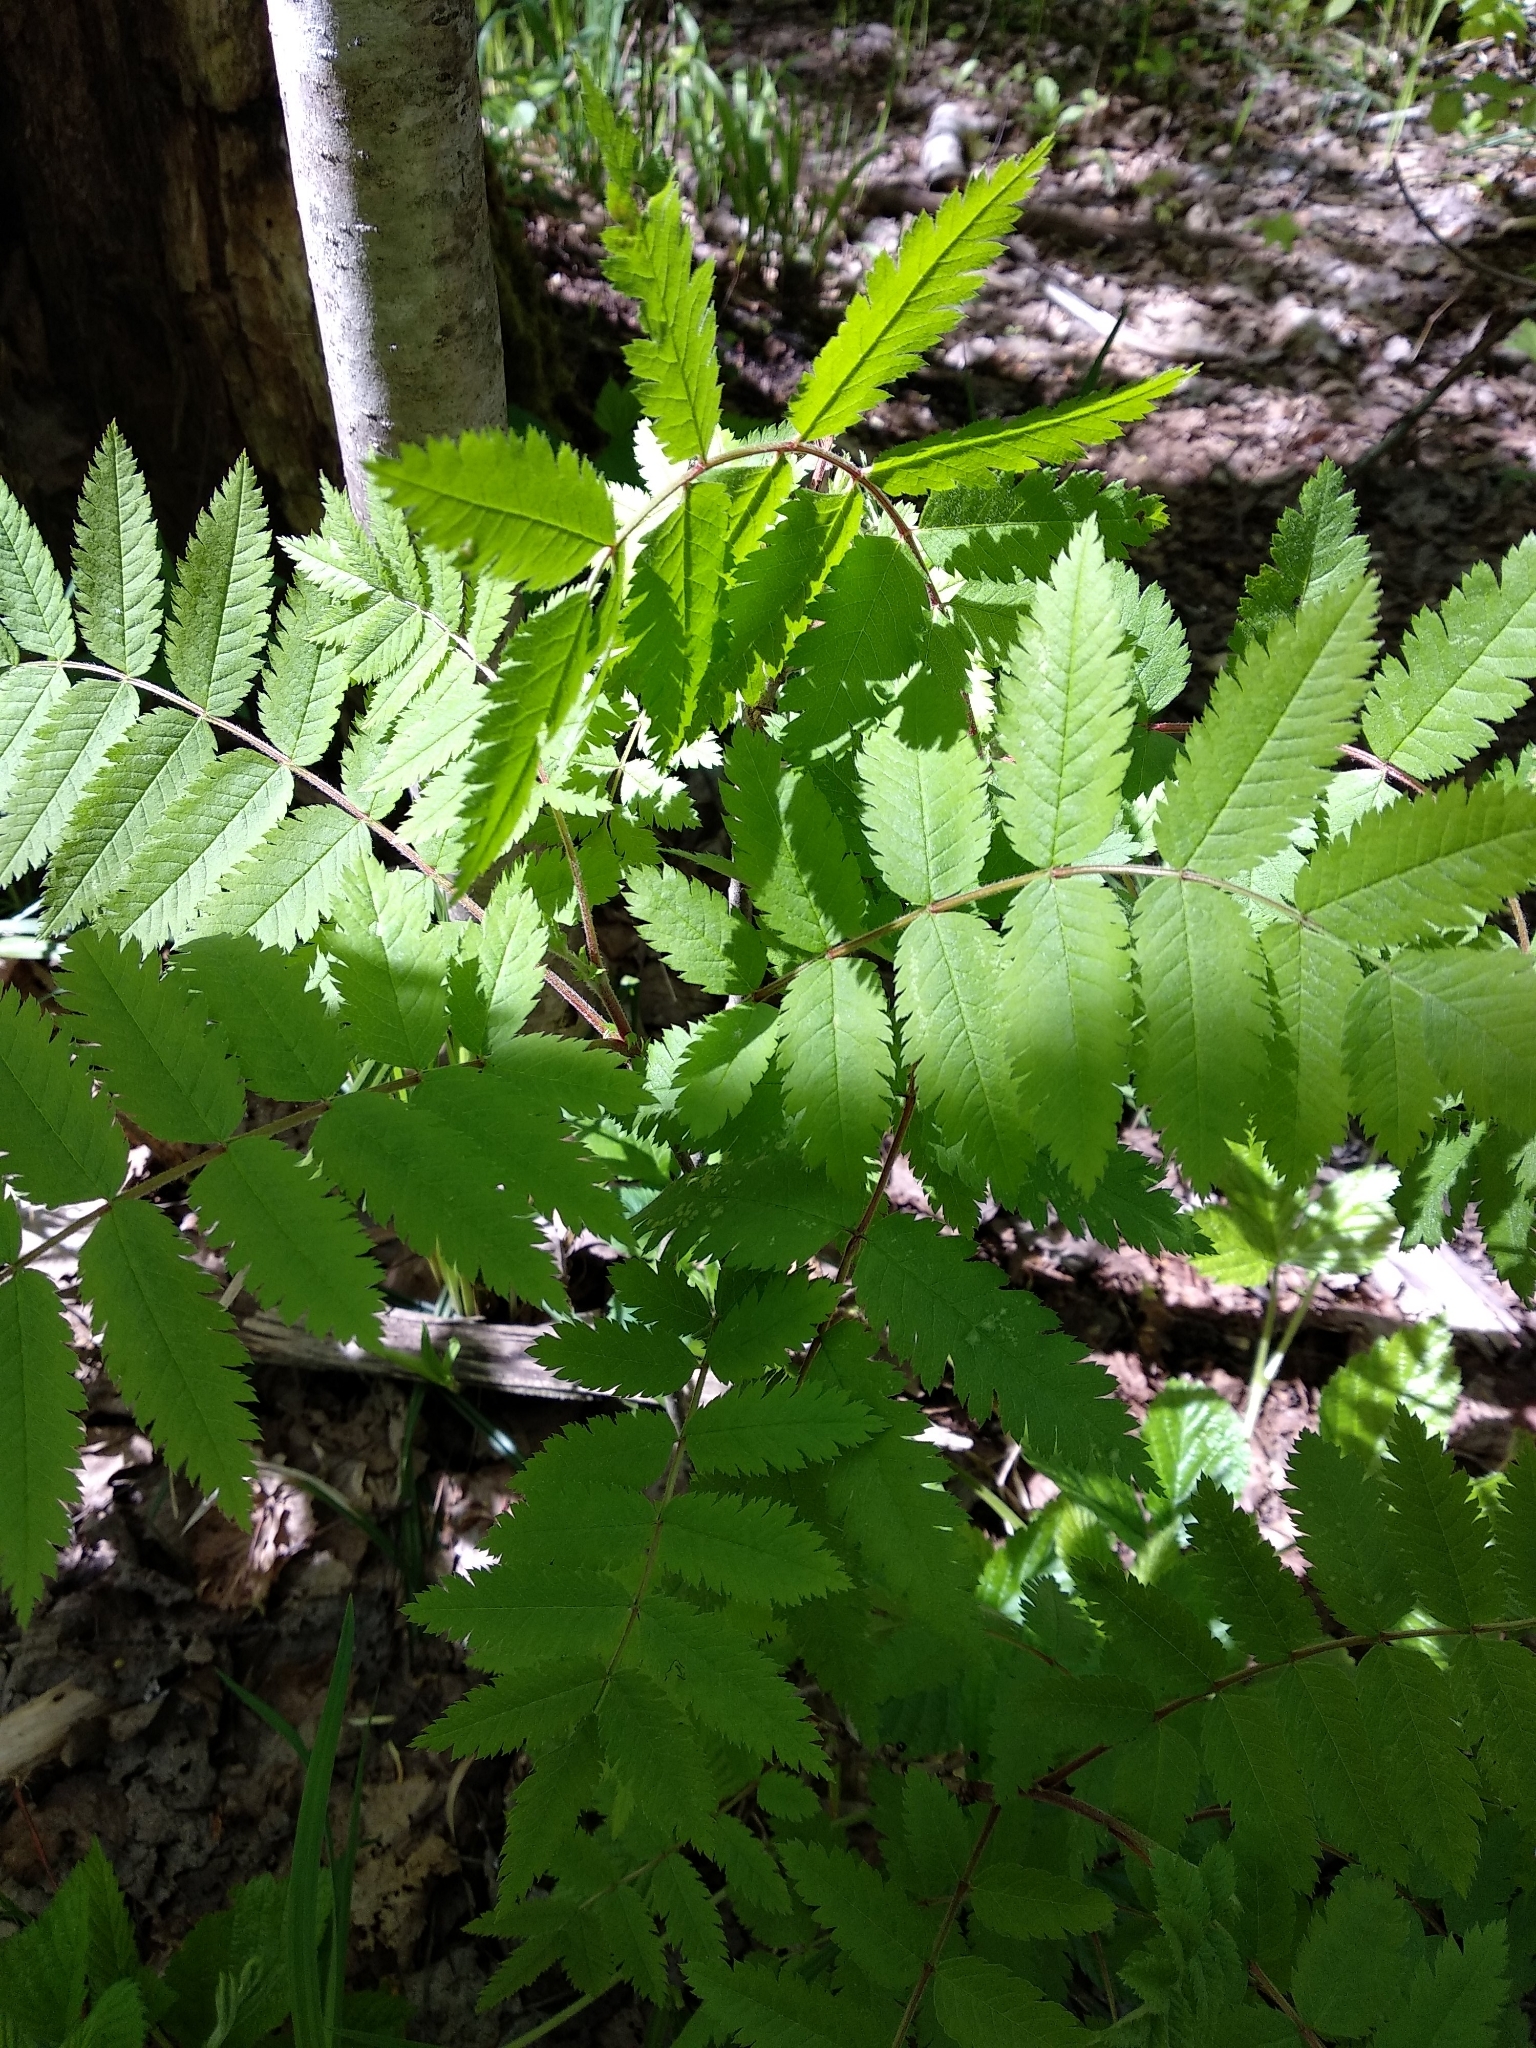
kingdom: Plantae
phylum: Tracheophyta
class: Magnoliopsida
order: Rosales
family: Rosaceae
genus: Sorbus
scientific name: Sorbus aucuparia
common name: Rowan
